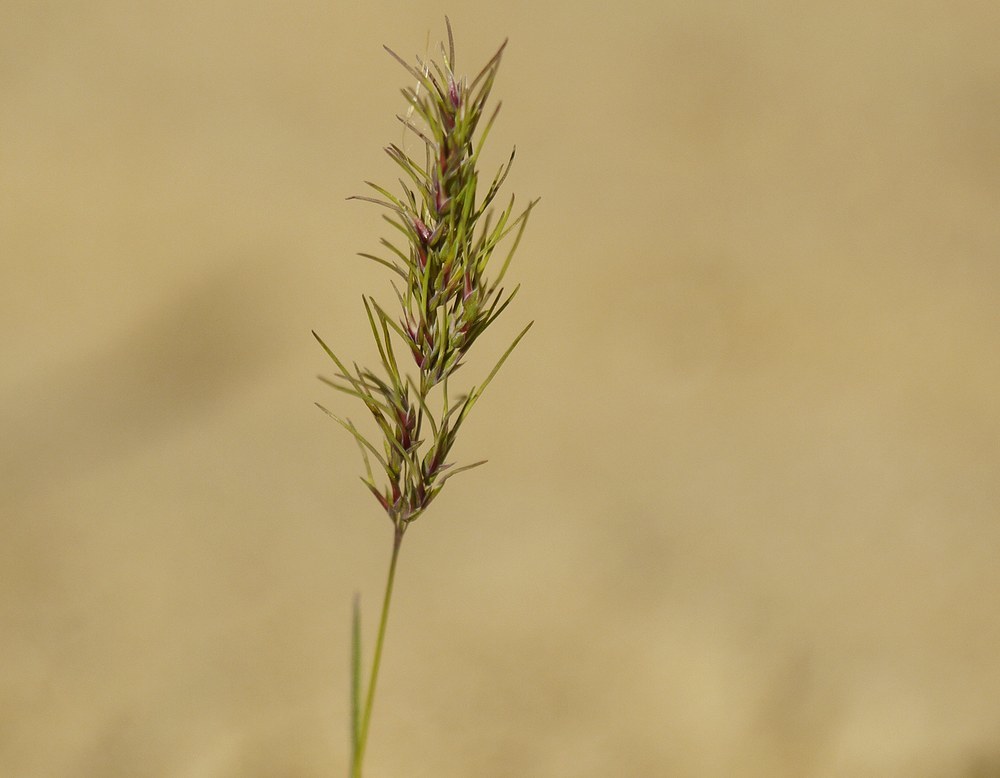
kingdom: Plantae
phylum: Tracheophyta
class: Liliopsida
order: Poales
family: Poaceae
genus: Poa
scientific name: Poa bulbosa
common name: Bulbous bluegrass
